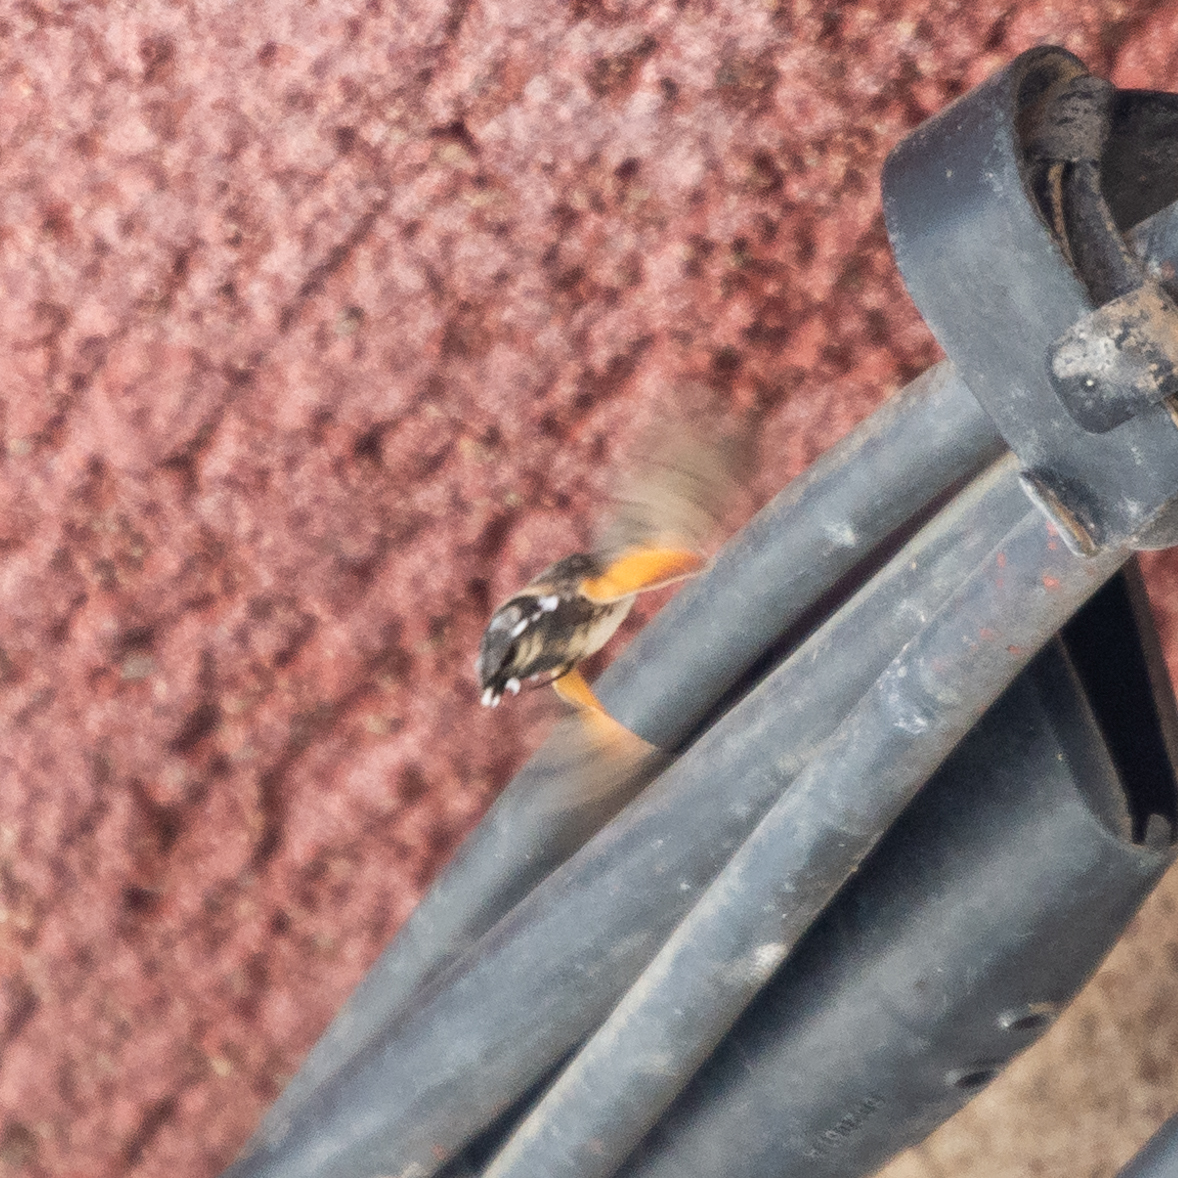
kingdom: Animalia
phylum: Arthropoda
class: Insecta
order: Lepidoptera
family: Sphingidae
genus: Macroglossum
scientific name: Macroglossum stellatarum
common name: Humming-bird hawk-moth
